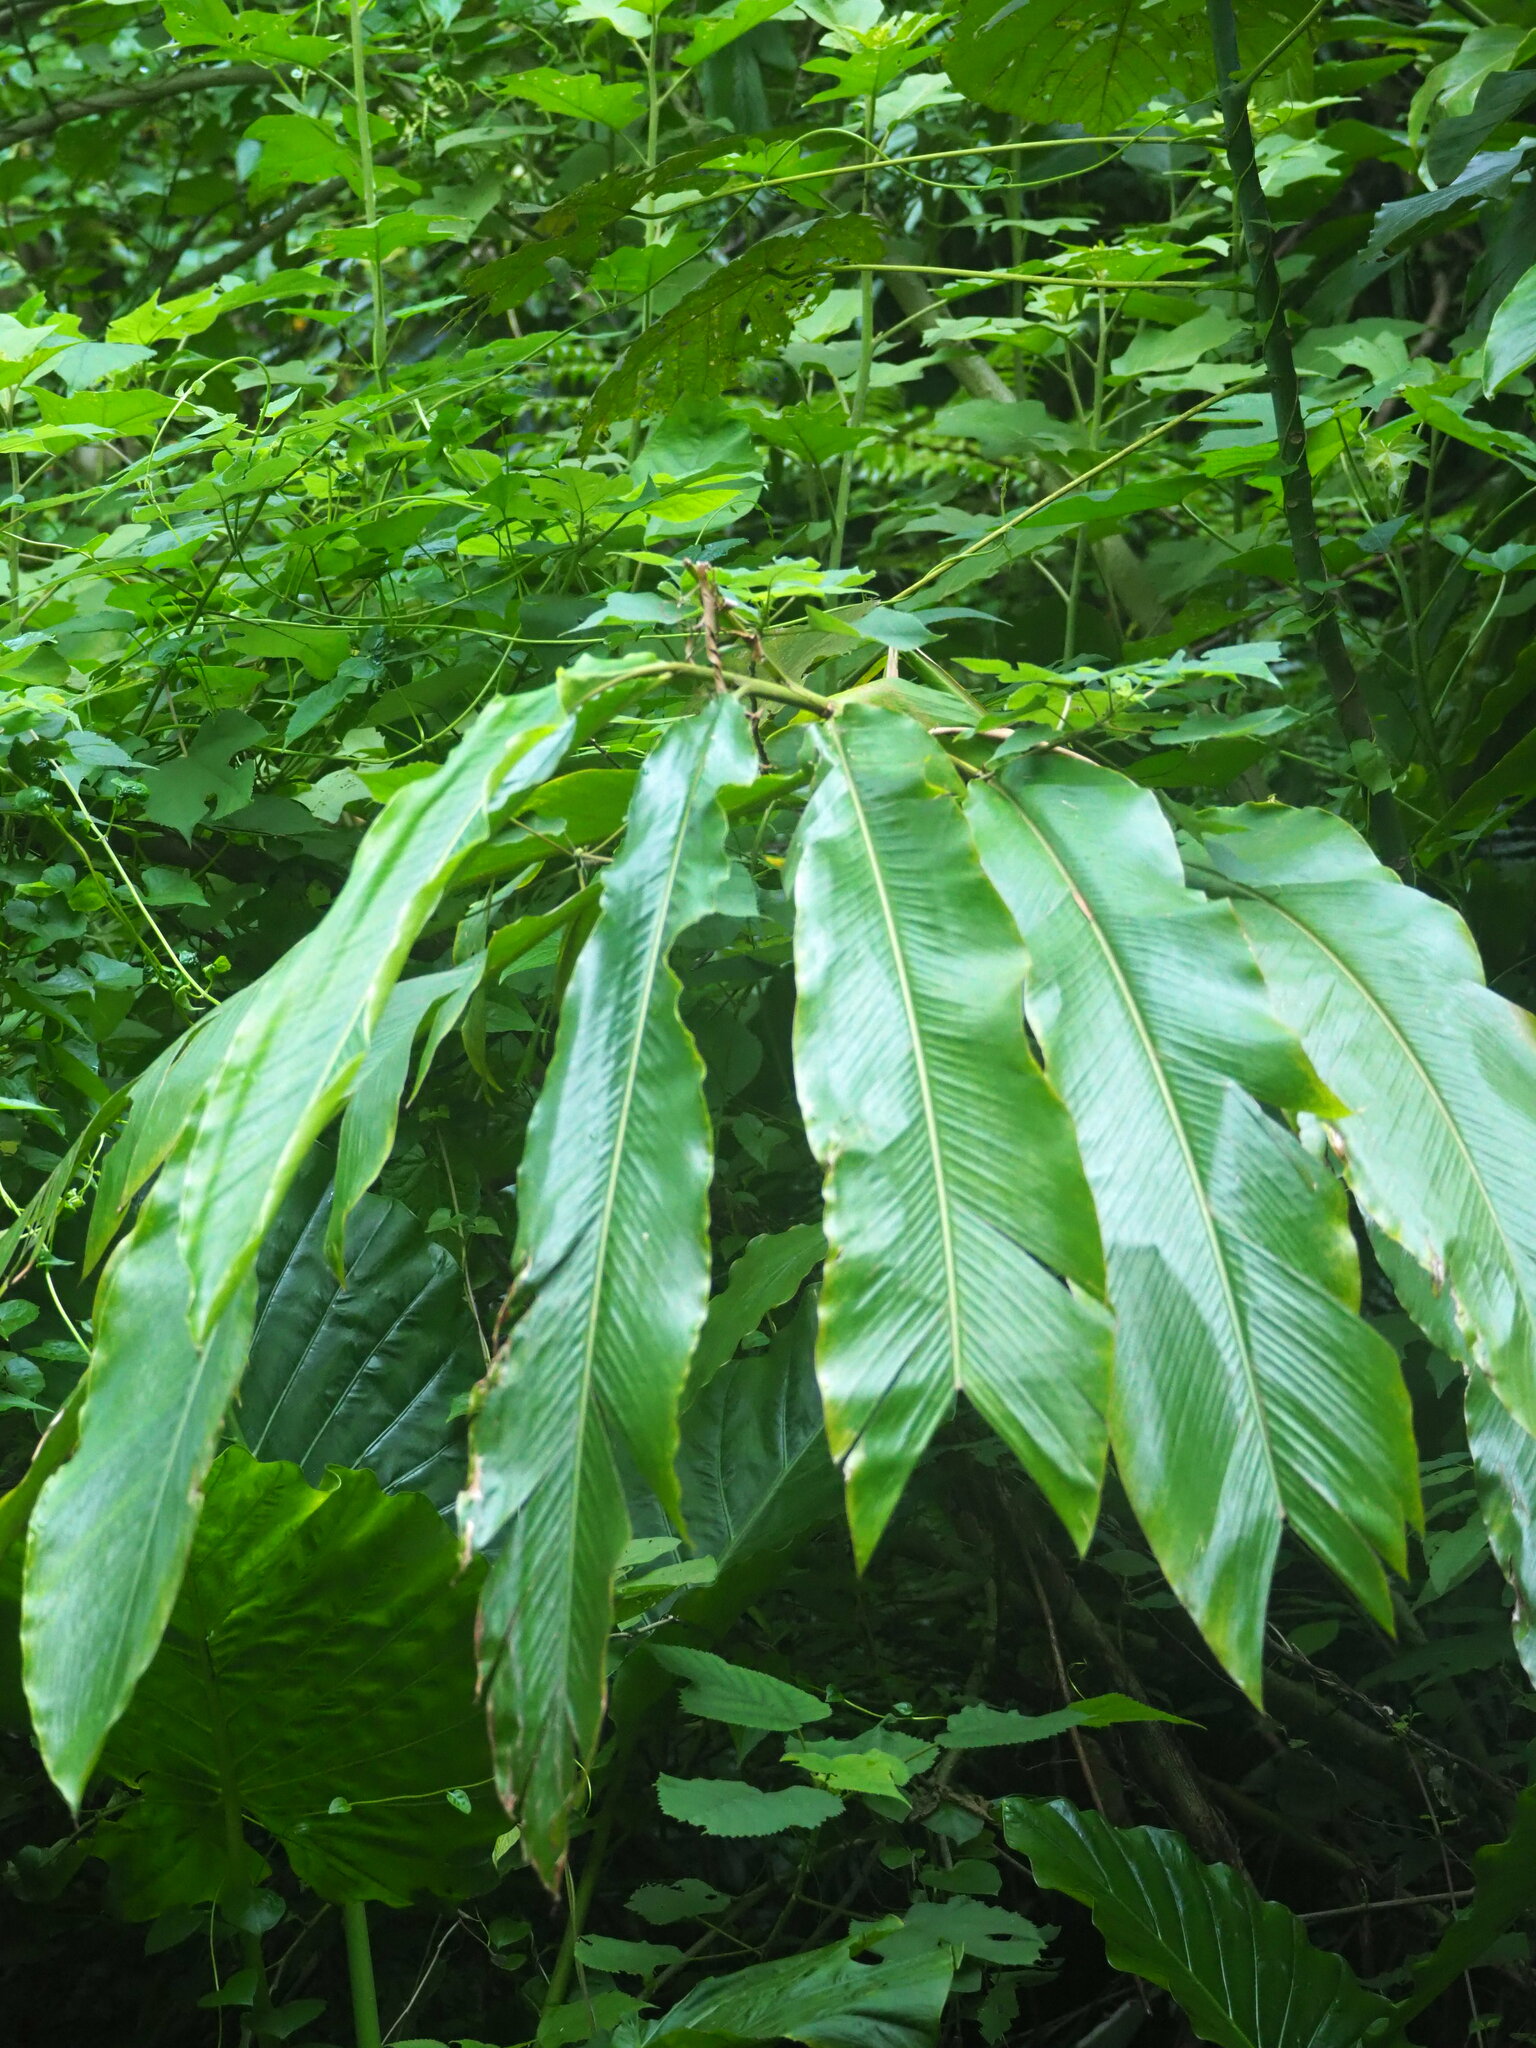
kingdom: Plantae
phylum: Tracheophyta
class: Liliopsida
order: Zingiberales
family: Zingiberaceae
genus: Alpinia
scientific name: Alpinia uraiensis
